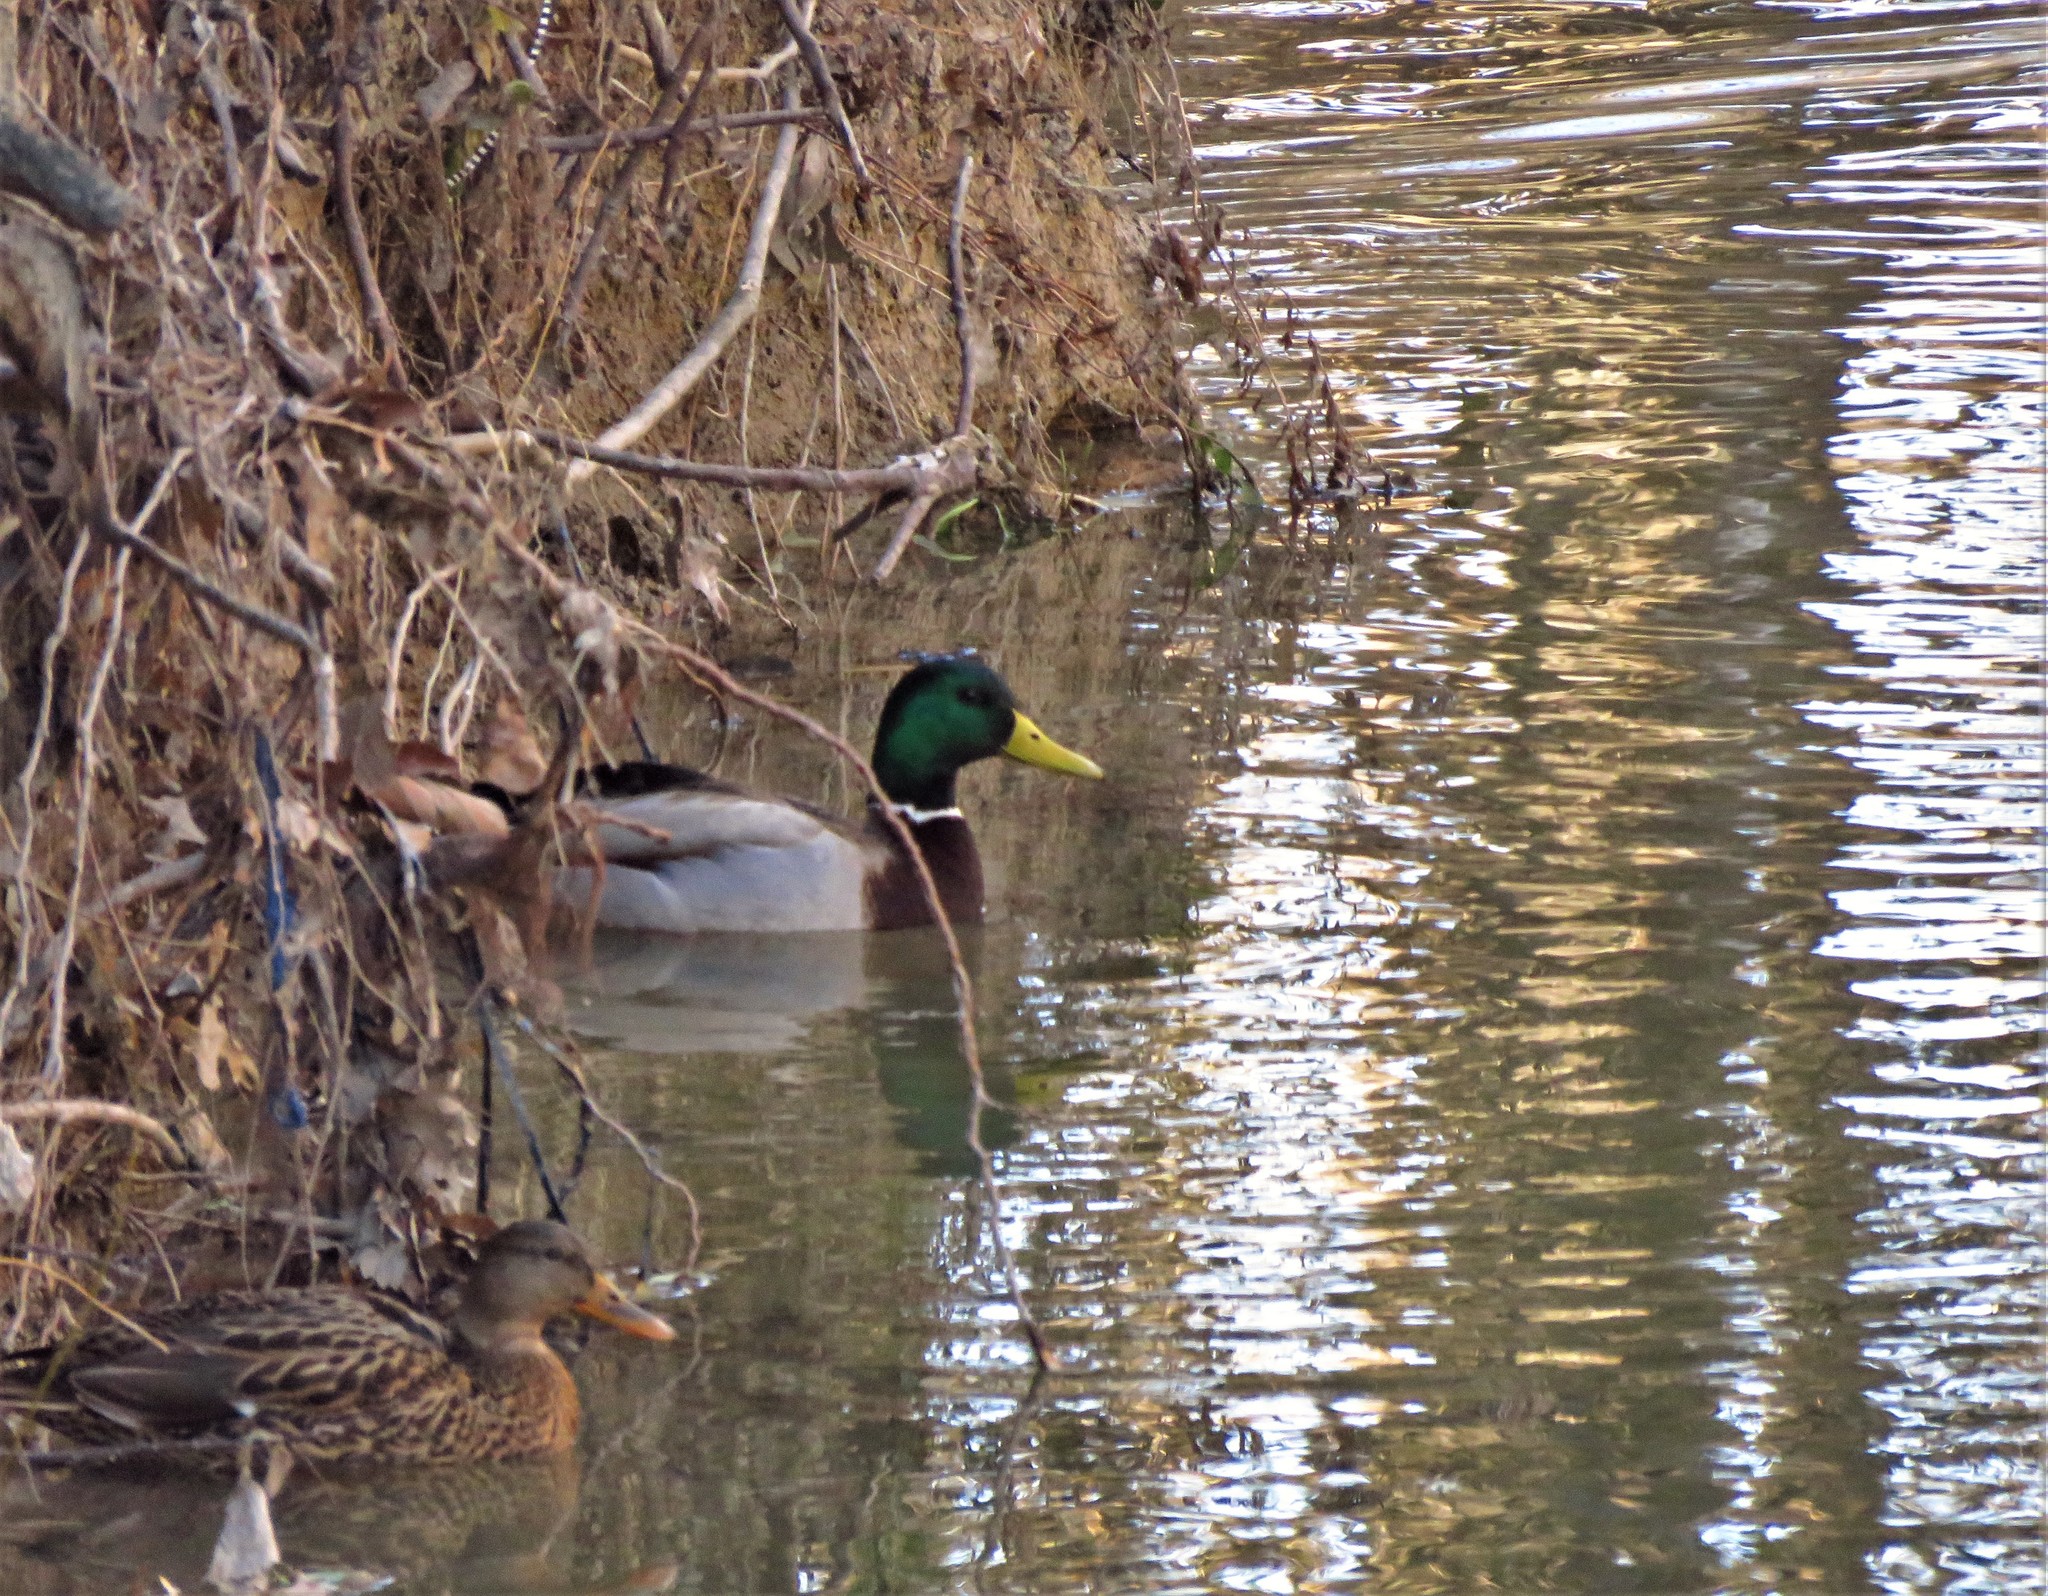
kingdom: Animalia
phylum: Chordata
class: Aves
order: Anseriformes
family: Anatidae
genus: Anas
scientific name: Anas platyrhynchos
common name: Mallard
